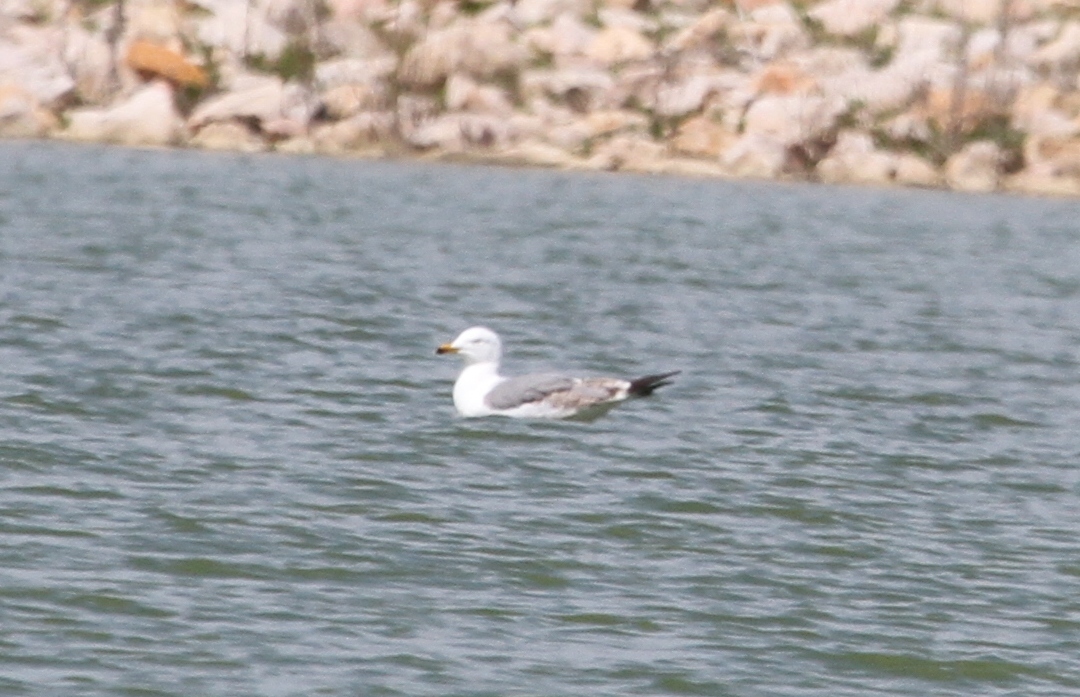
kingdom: Animalia
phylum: Chordata
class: Aves
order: Charadriiformes
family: Laridae
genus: Larus
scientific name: Larus michahellis
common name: Yellow-legged gull
